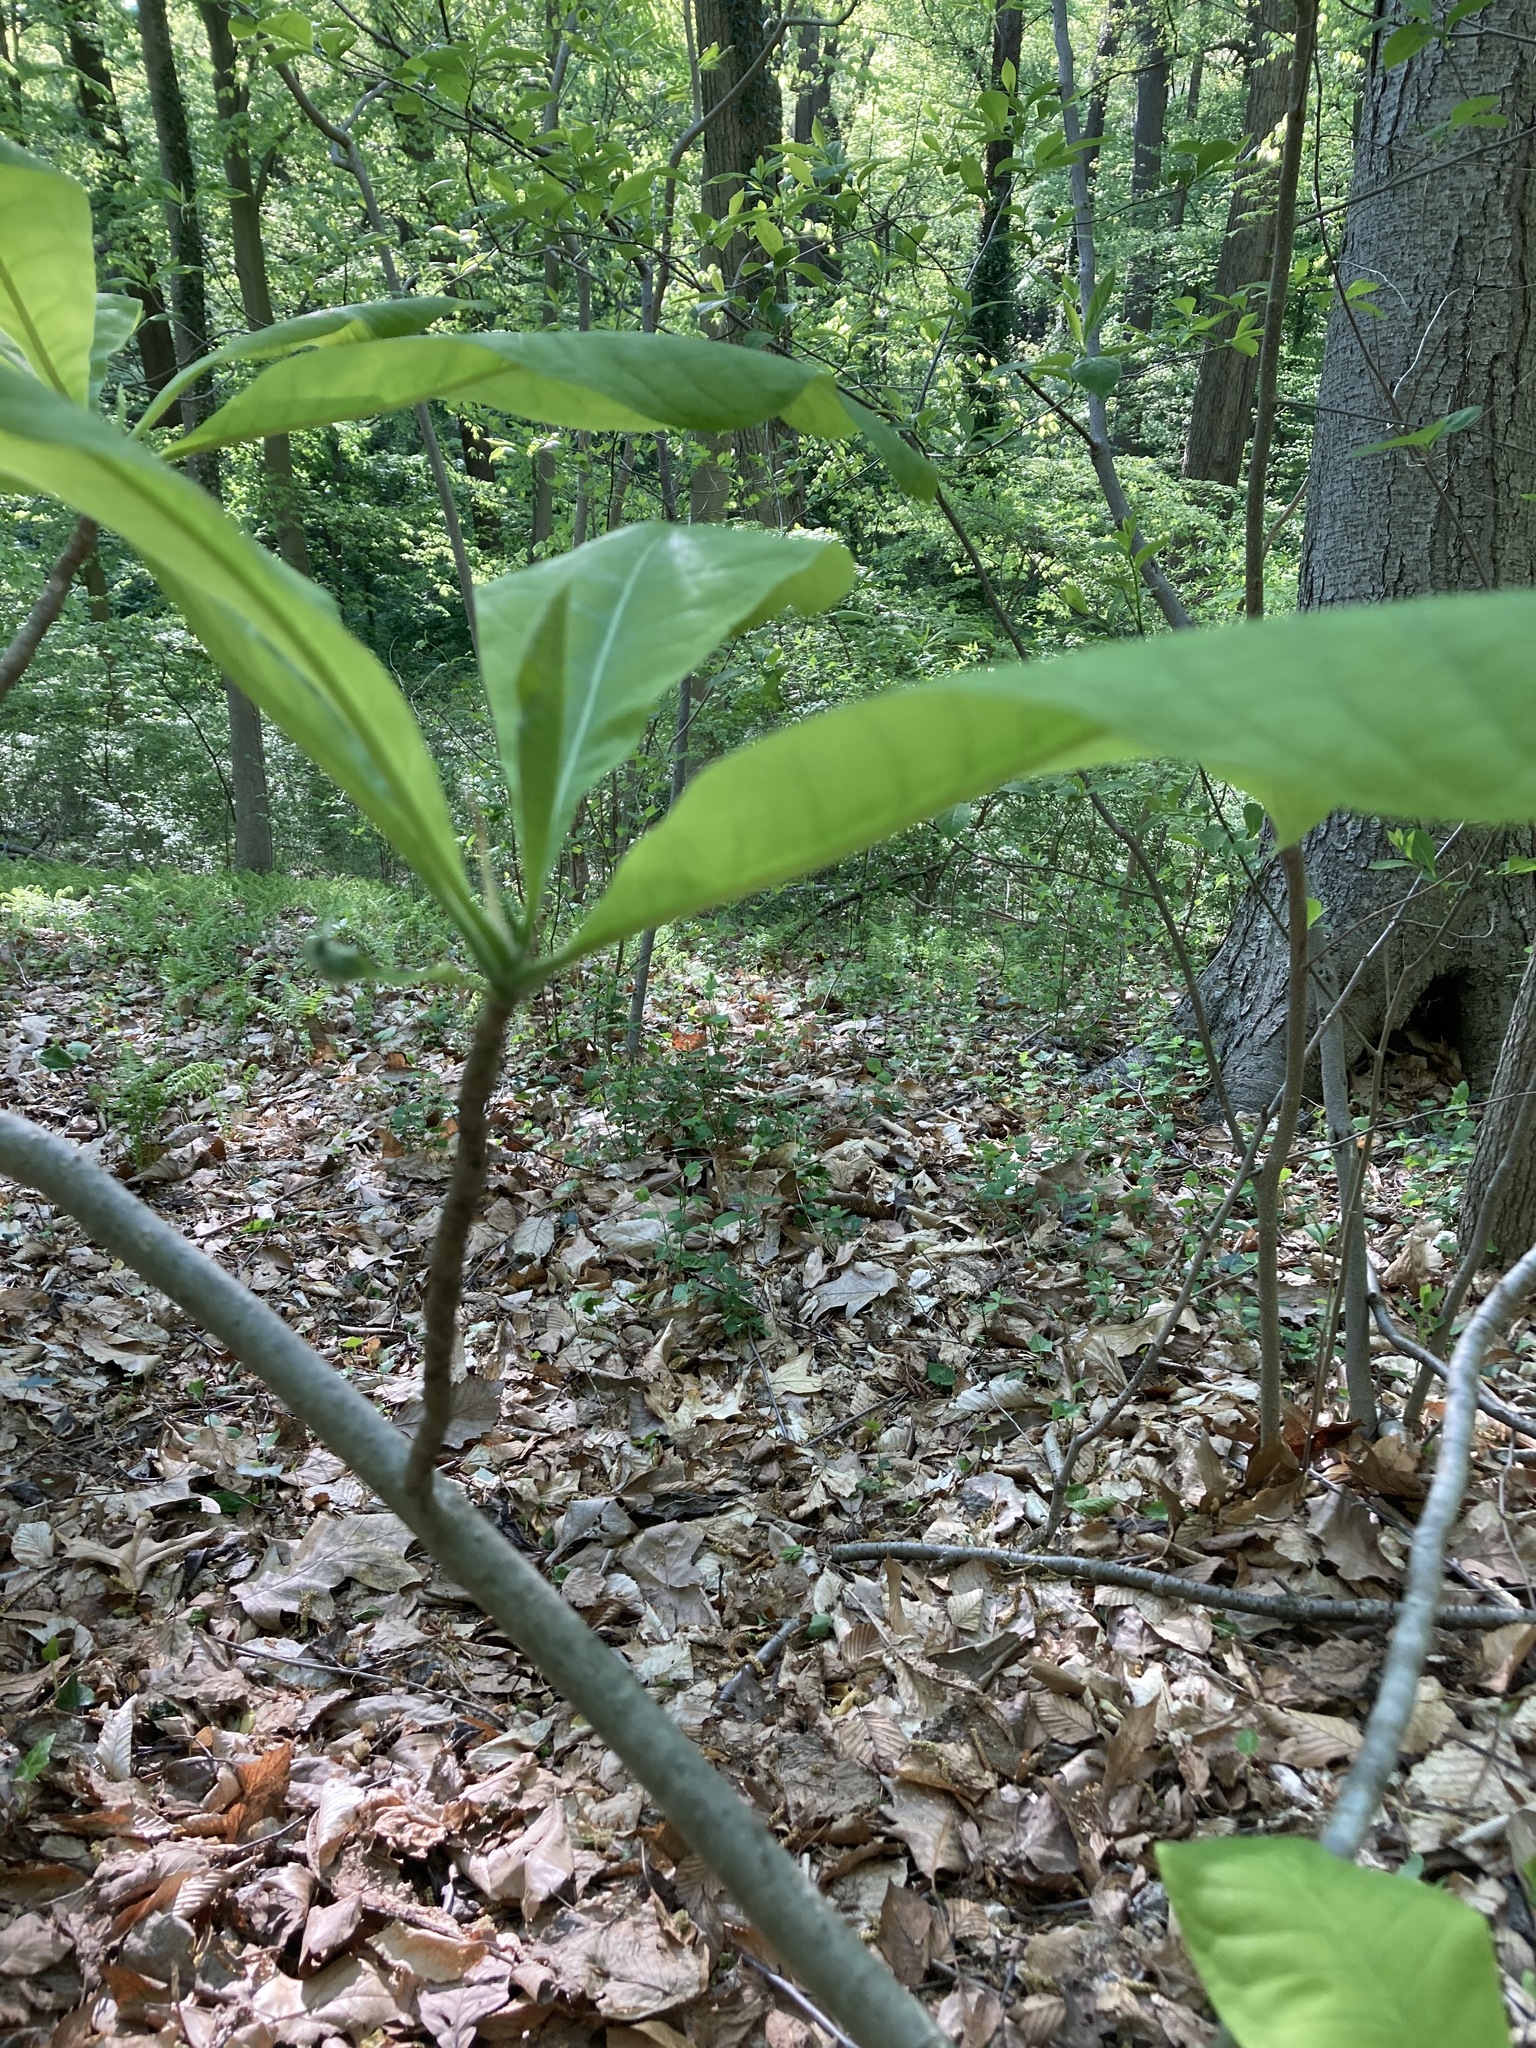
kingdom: Plantae
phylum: Tracheophyta
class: Magnoliopsida
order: Magnoliales
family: Magnoliaceae
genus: Magnolia
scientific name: Magnolia tripetala
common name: Umbrella magnolia
